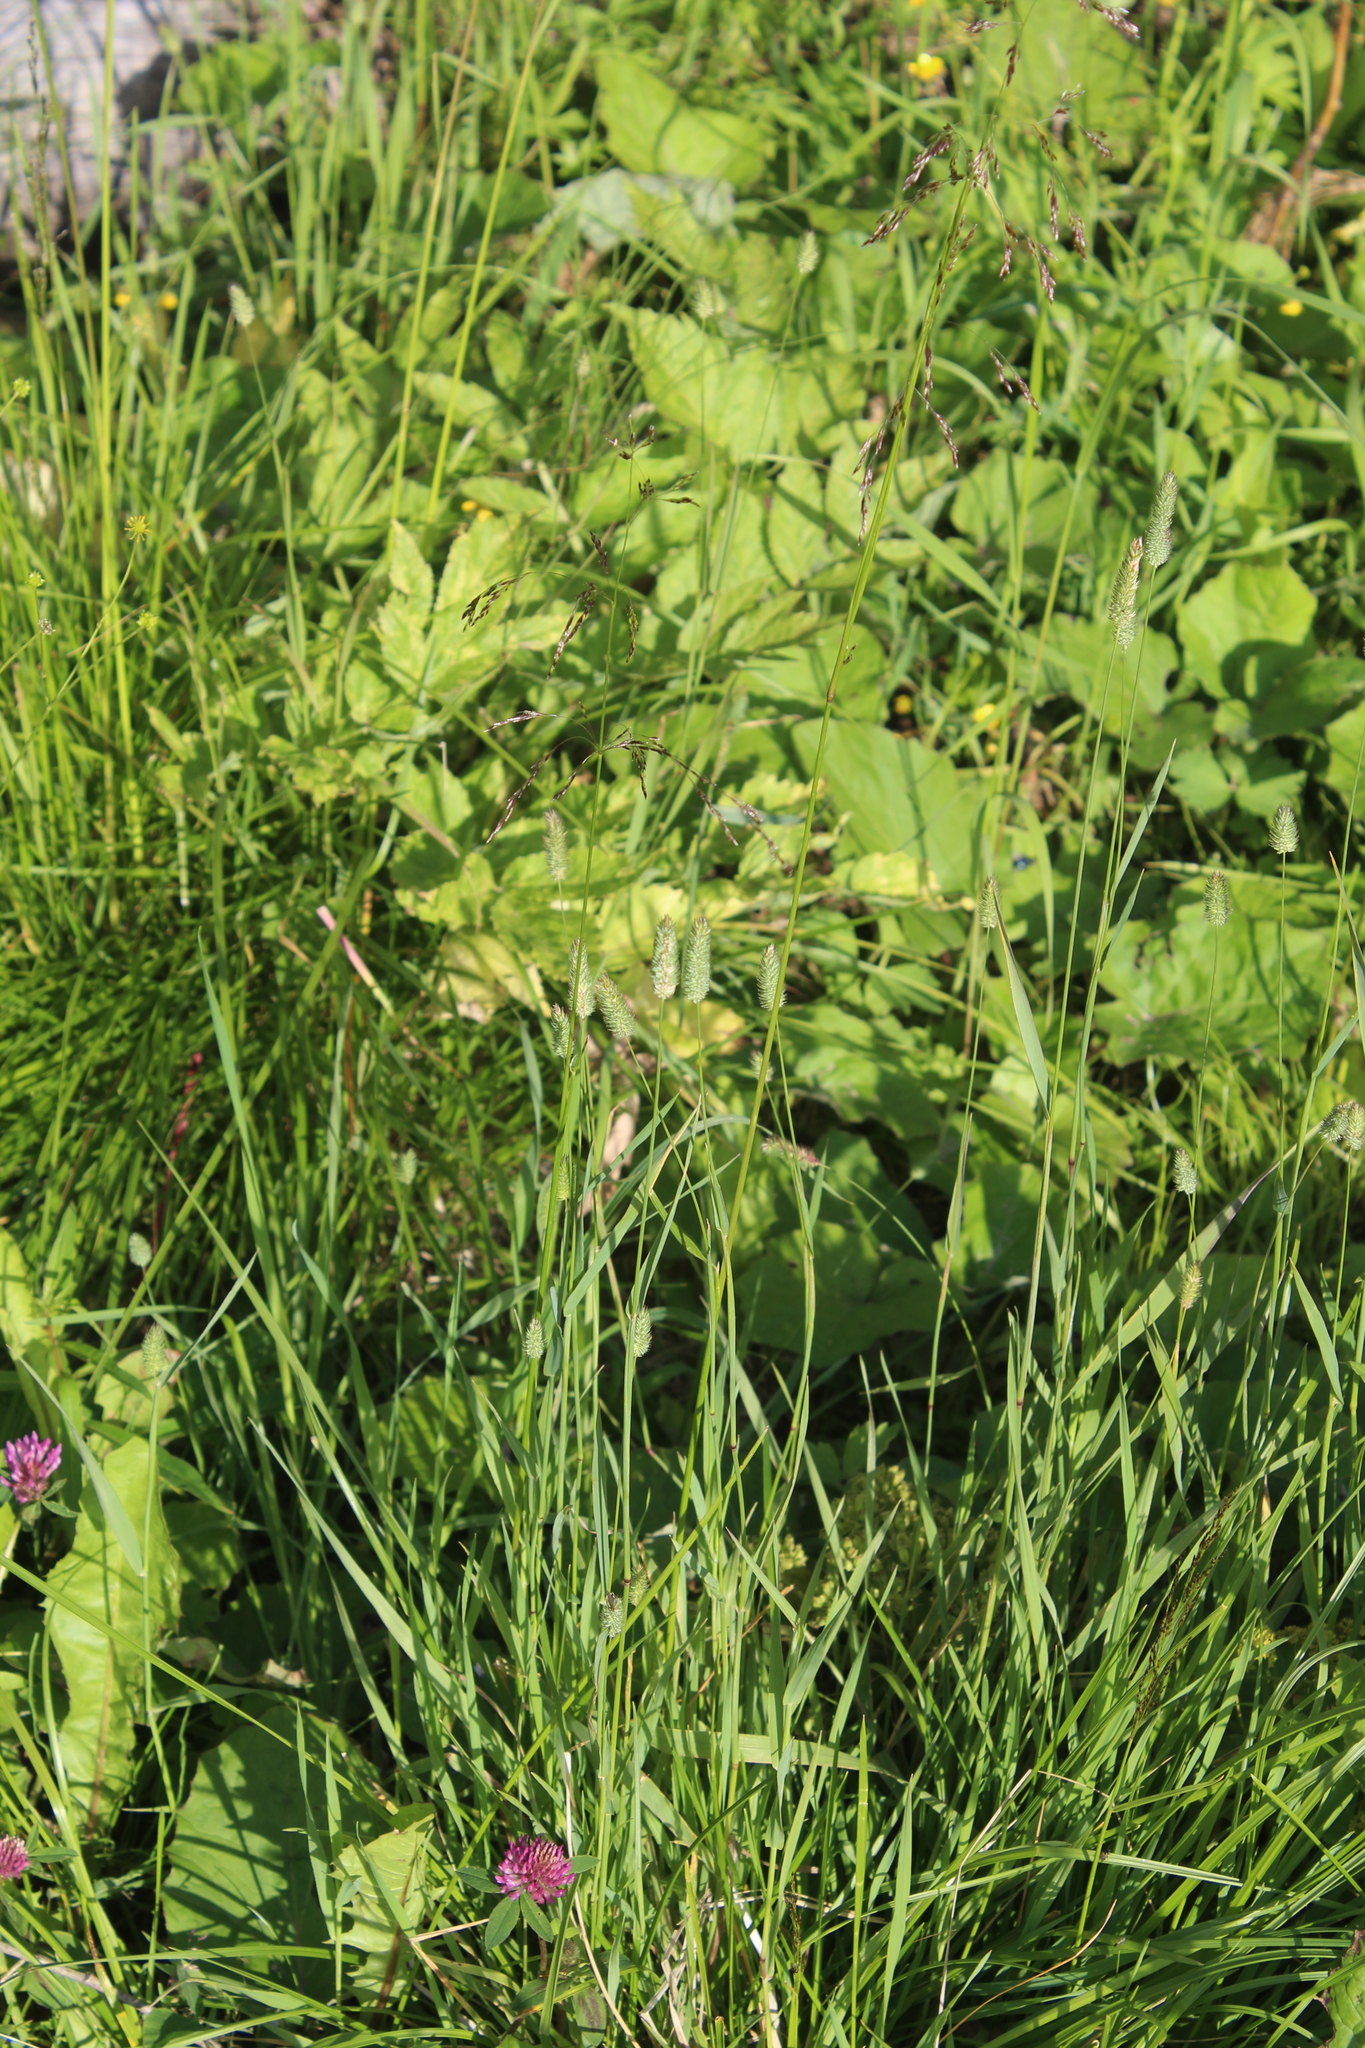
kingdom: Plantae
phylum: Tracheophyta
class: Liliopsida
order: Poales
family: Poaceae
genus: Phleum
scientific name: Phleum pratense
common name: Timothy grass
